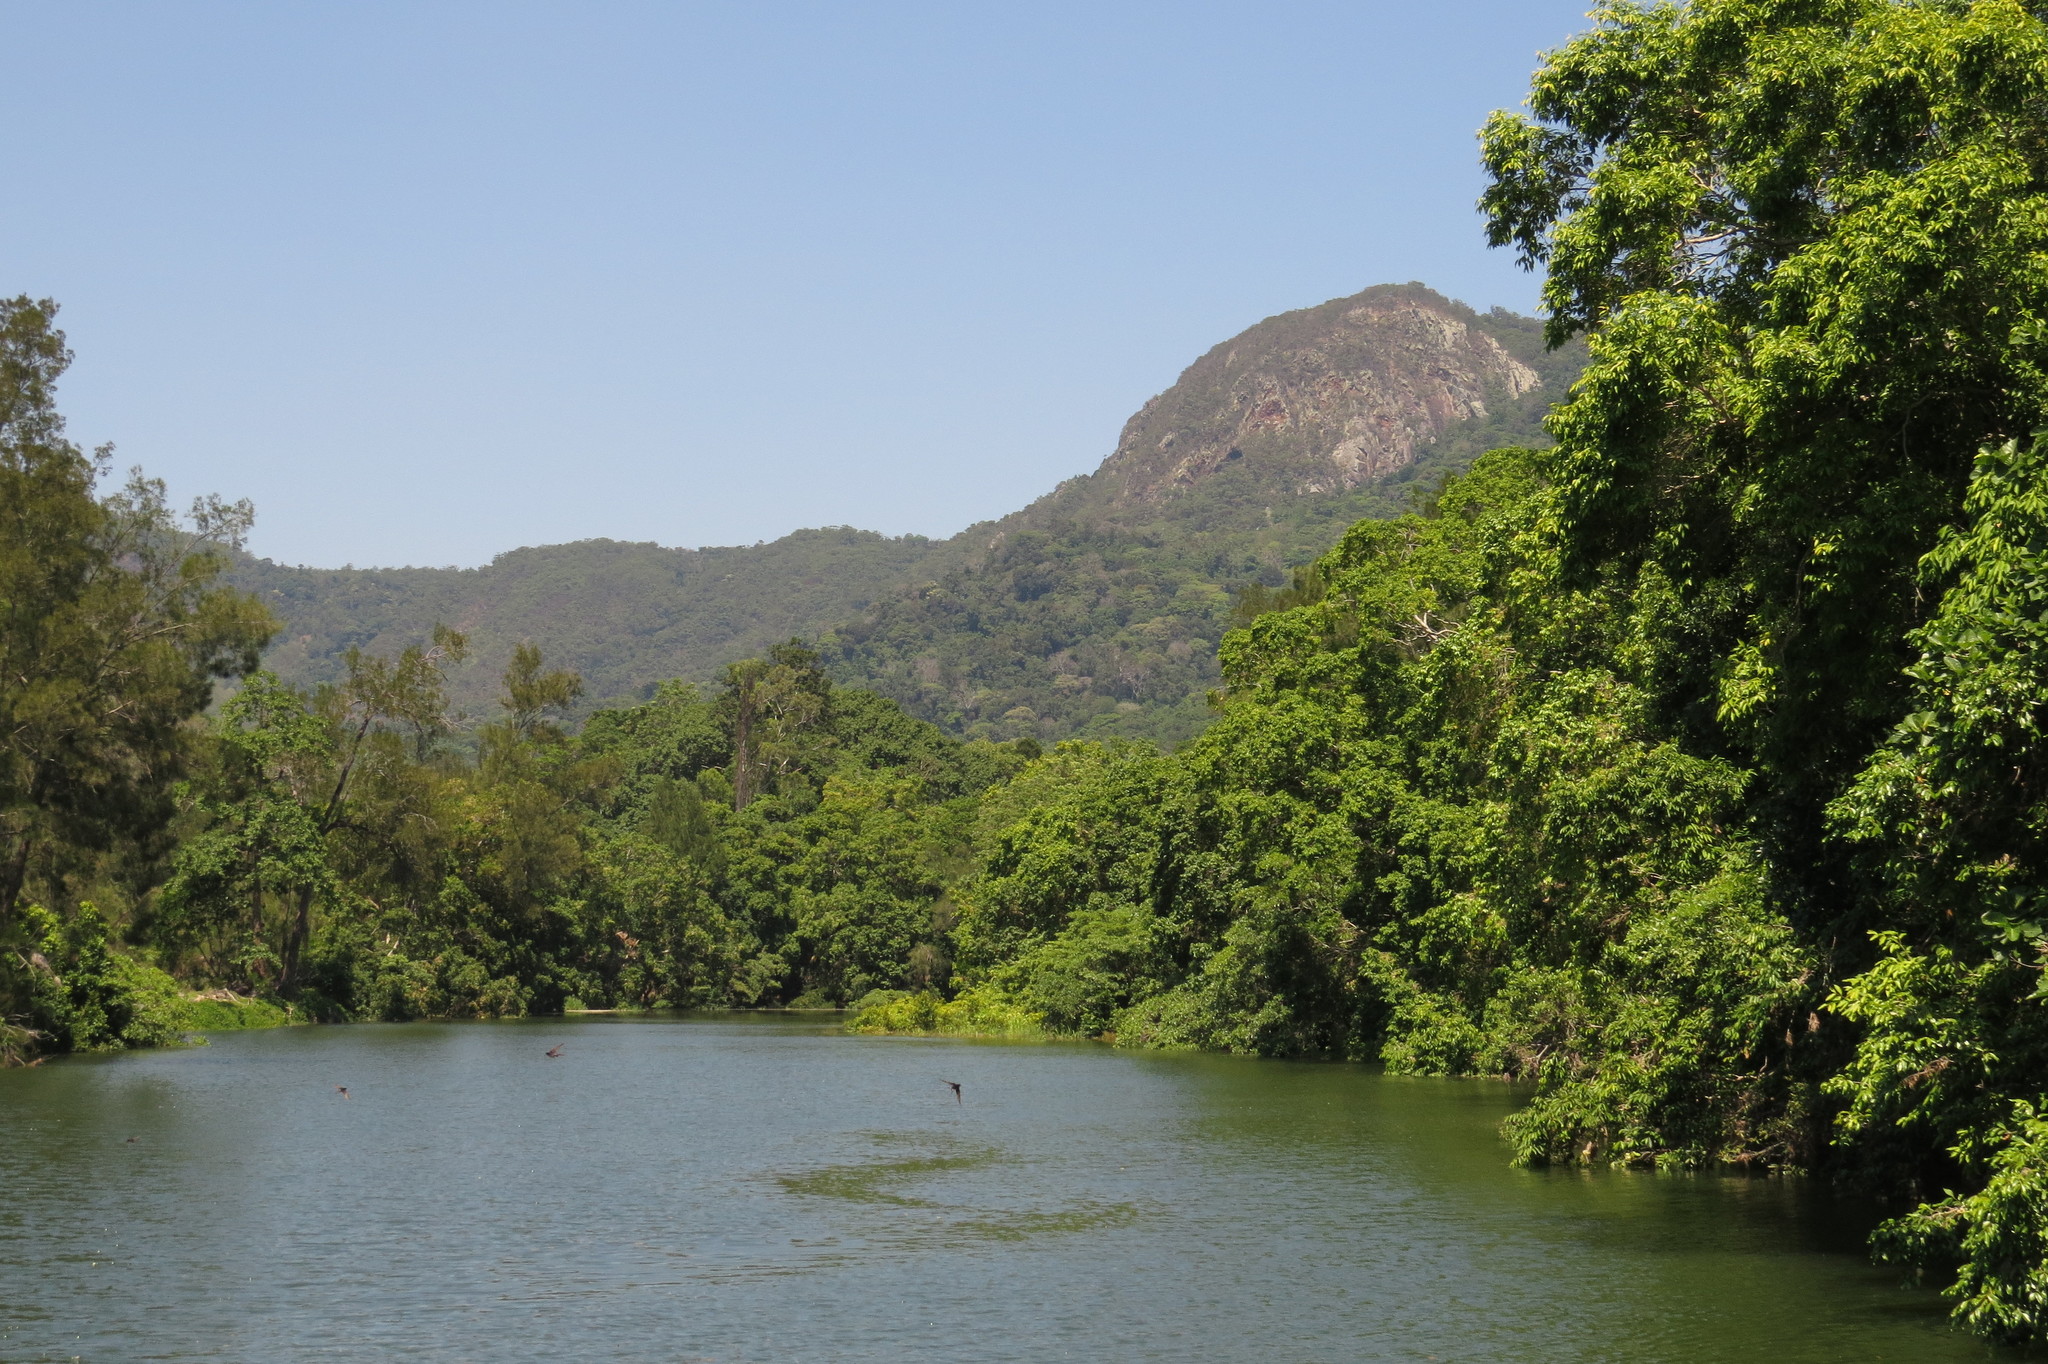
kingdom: Plantae
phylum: Tracheophyta
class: Magnoliopsida
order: Myrtales
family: Myrtaceae
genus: Syzygium
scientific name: Syzygium tierneyanum
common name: River-cherry
